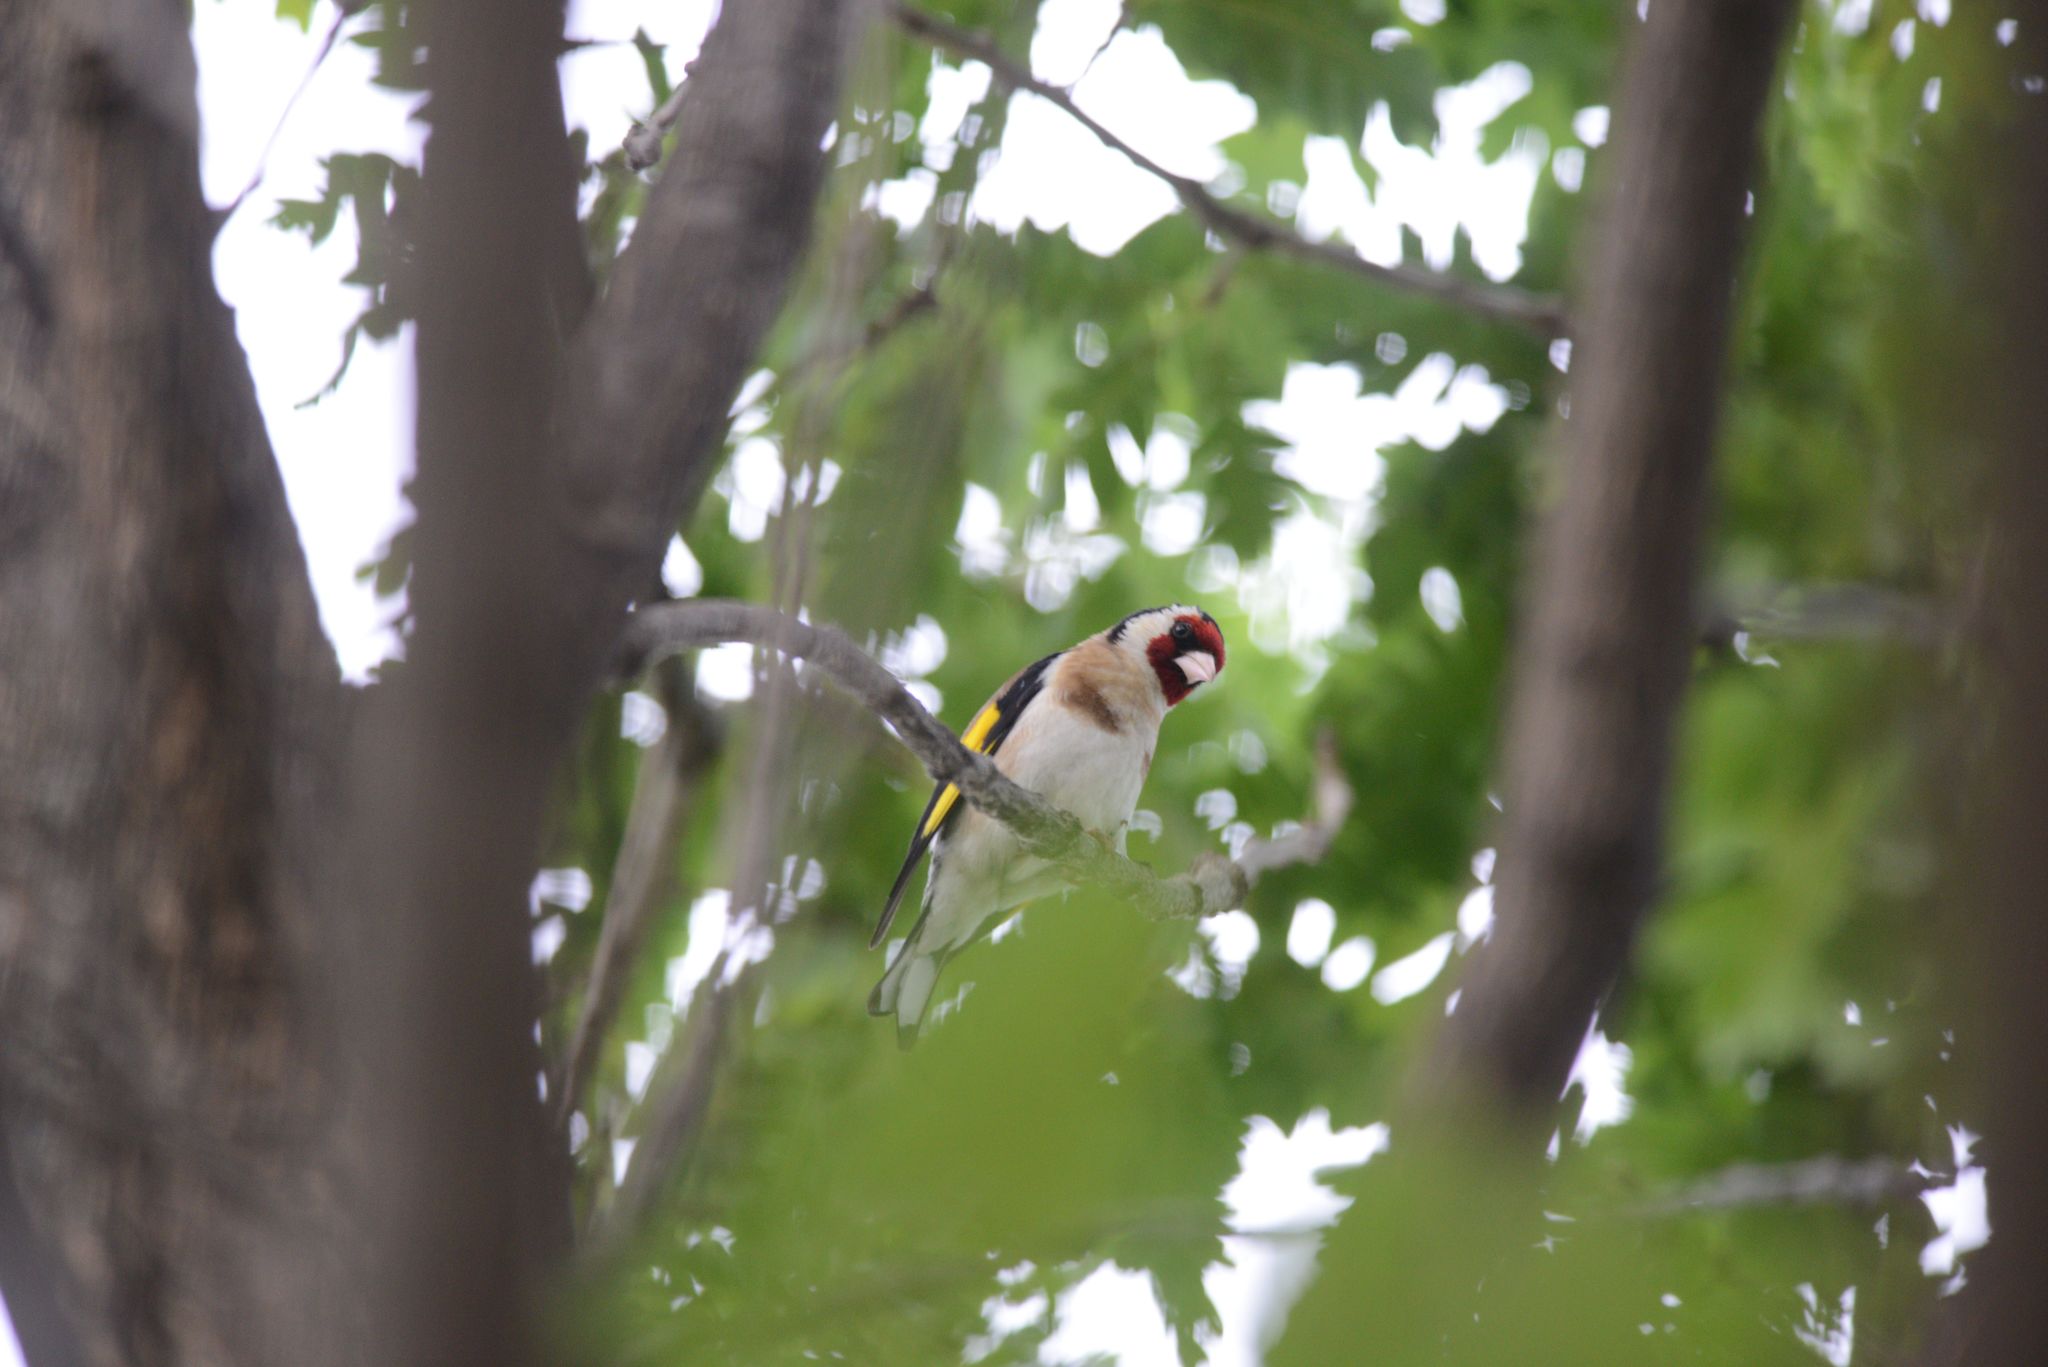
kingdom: Animalia
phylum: Chordata
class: Aves
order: Passeriformes
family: Fringillidae
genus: Carduelis
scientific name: Carduelis carduelis
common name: European goldfinch
